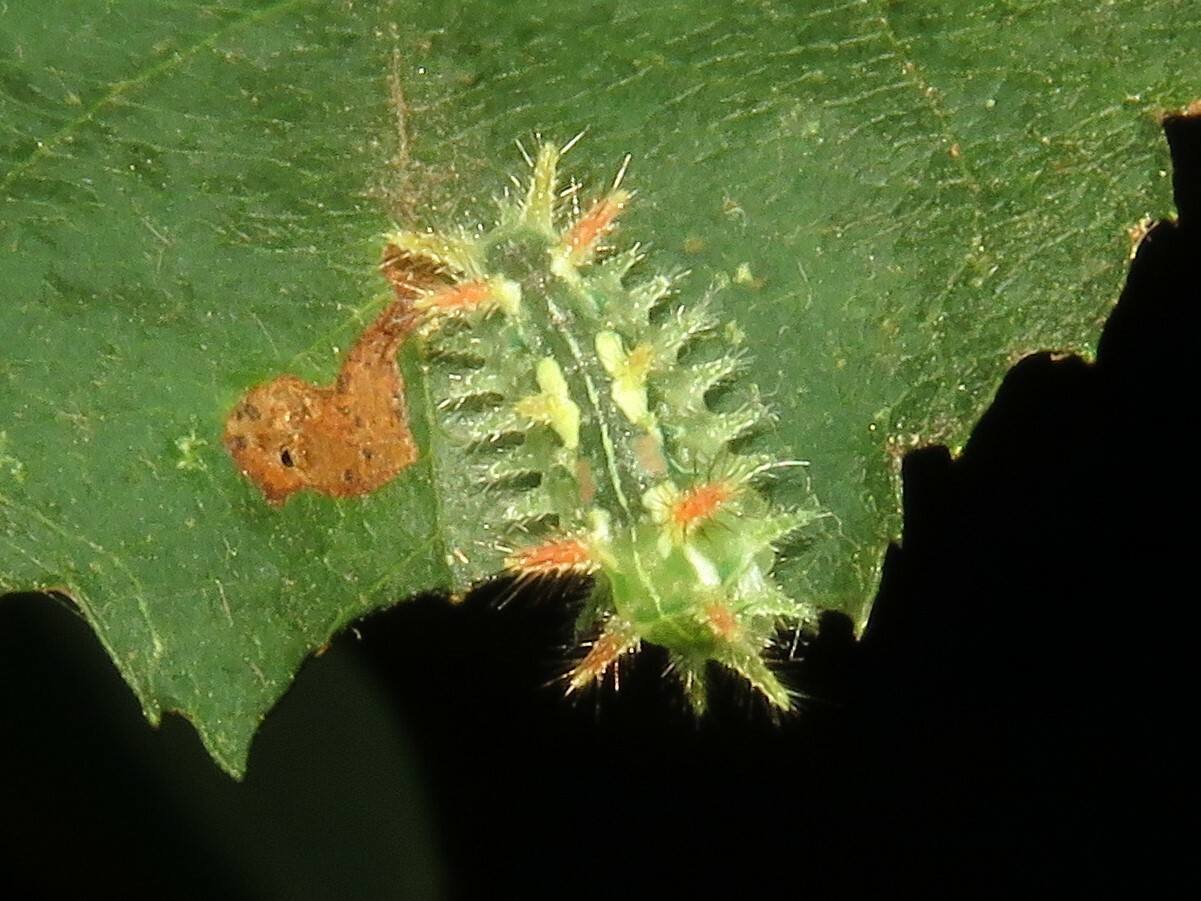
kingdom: Animalia
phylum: Arthropoda
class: Insecta
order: Lepidoptera
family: Limacodidae
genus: Euclea
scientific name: Euclea delphinii
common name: Spiny oak-slug moth
